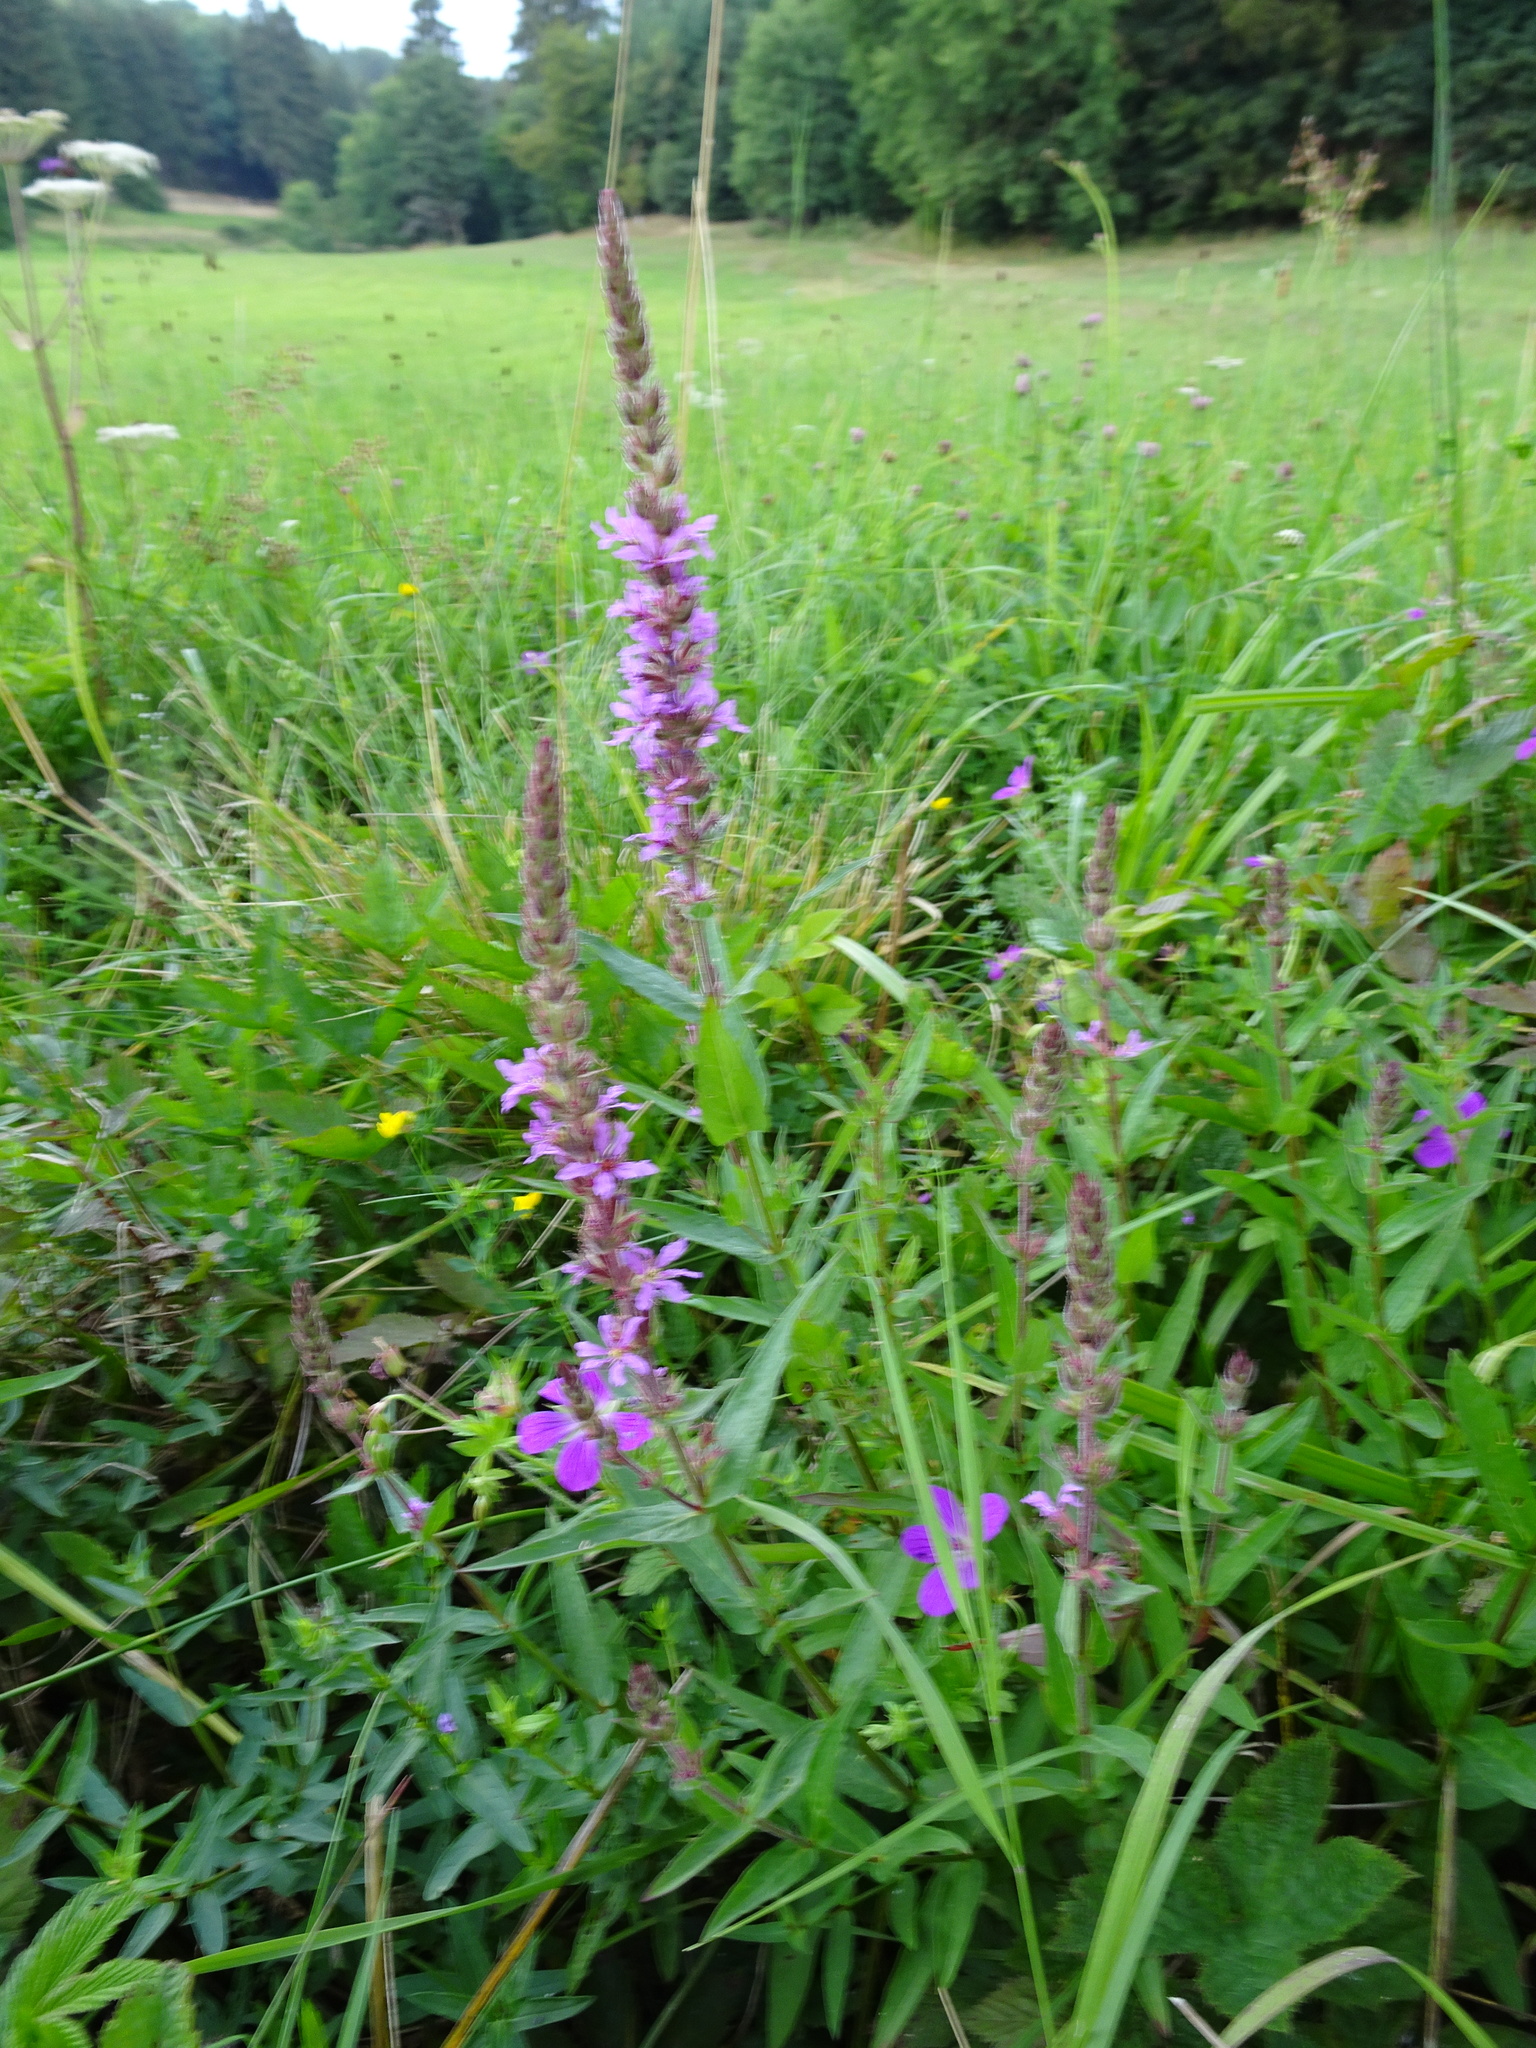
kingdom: Plantae
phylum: Tracheophyta
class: Magnoliopsida
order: Myrtales
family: Lythraceae
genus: Lythrum
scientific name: Lythrum salicaria
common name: Purple loosestrife
